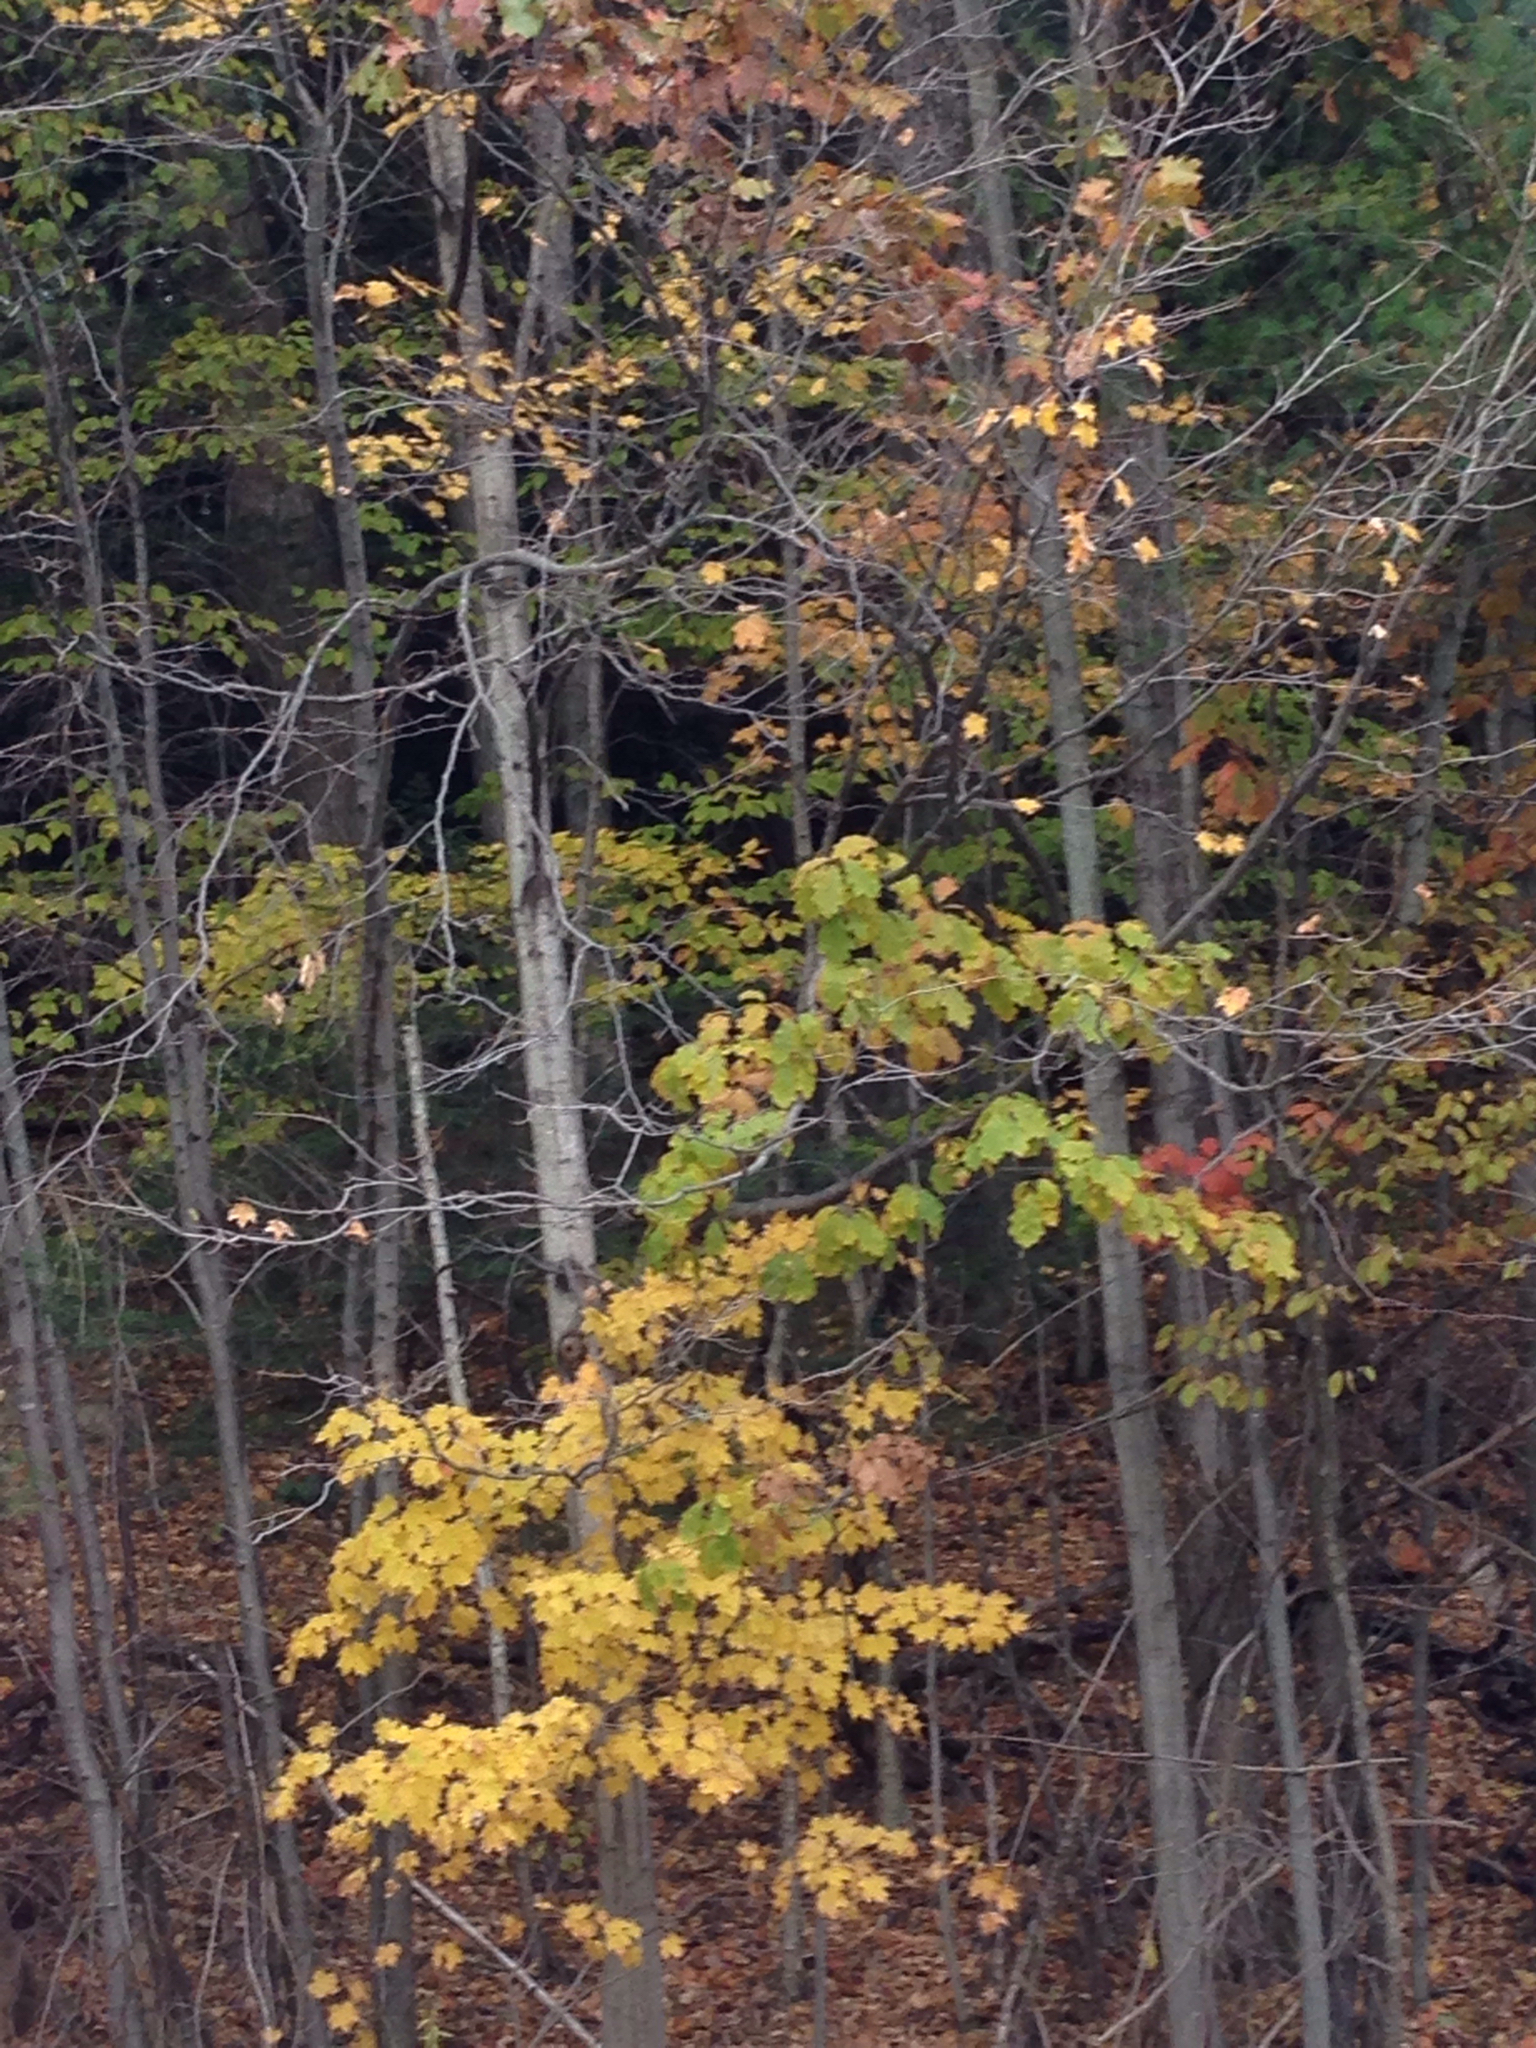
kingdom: Plantae
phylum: Tracheophyta
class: Magnoliopsida
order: Fagales
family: Fagaceae
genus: Quercus
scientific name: Quercus rubra
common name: Red oak
